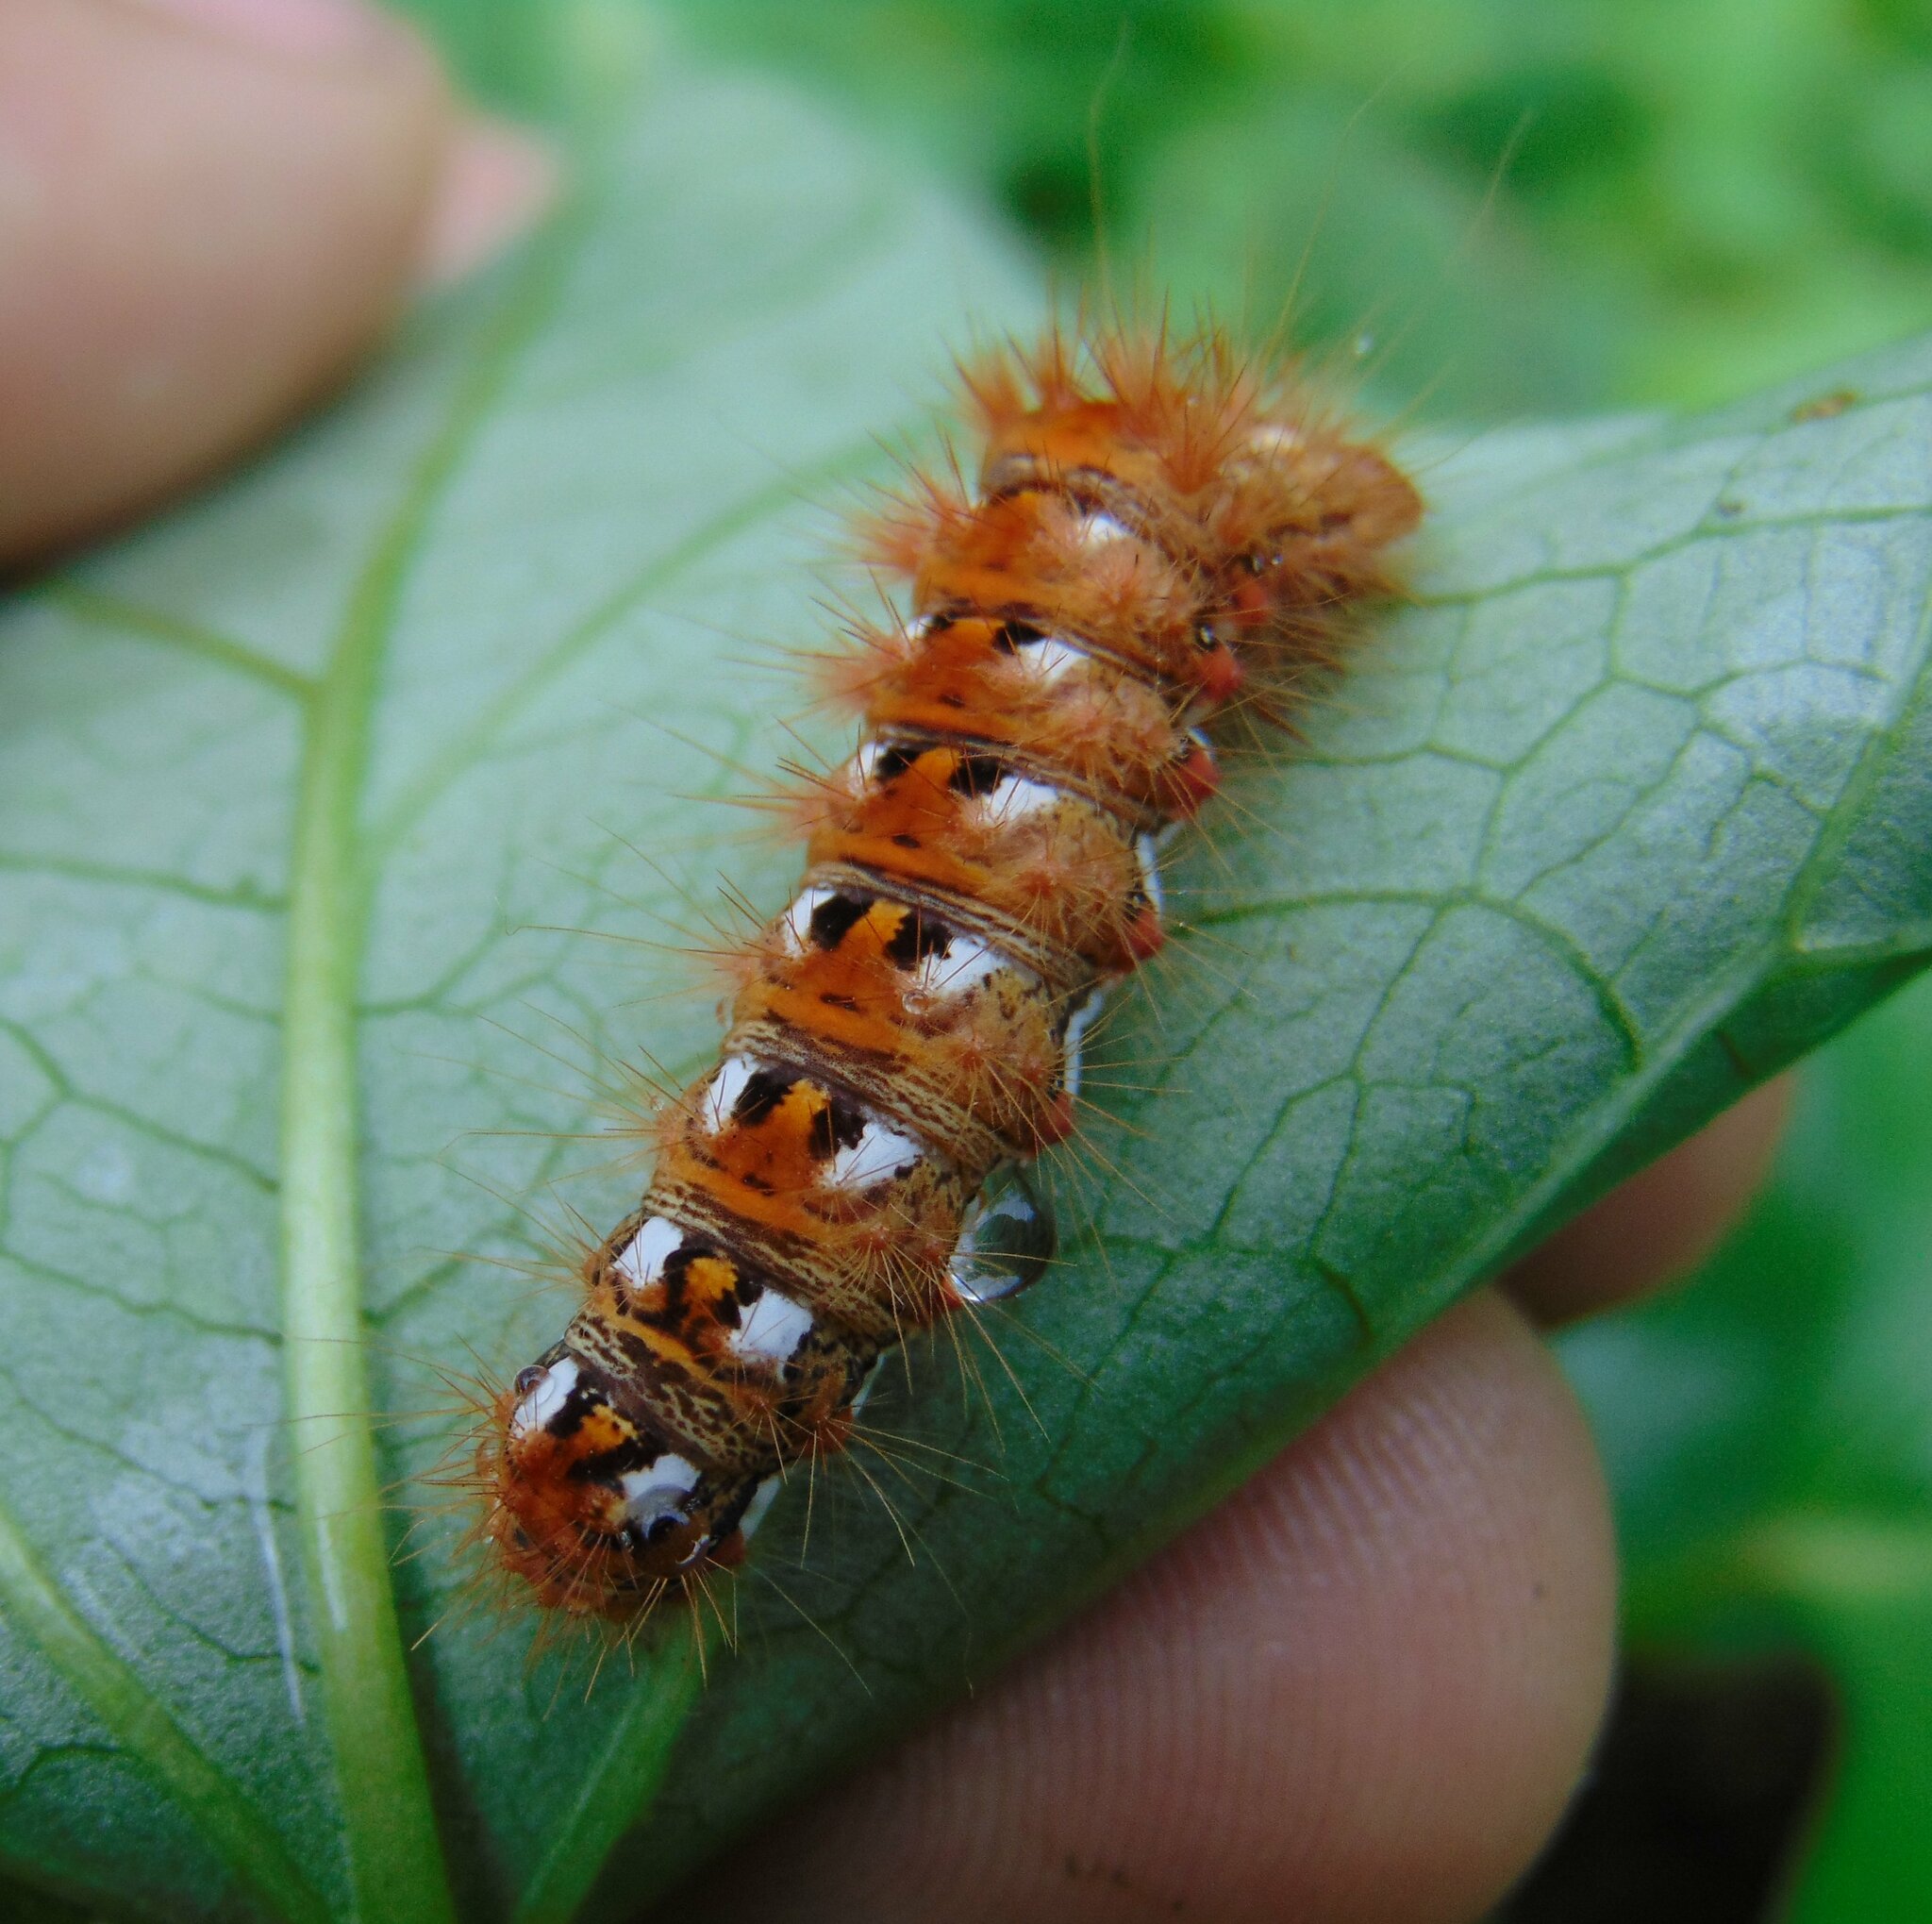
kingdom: Animalia
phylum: Arthropoda
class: Insecta
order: Lepidoptera
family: Noctuidae
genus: Acronicta
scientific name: Acronicta rumicis
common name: Knot grass
